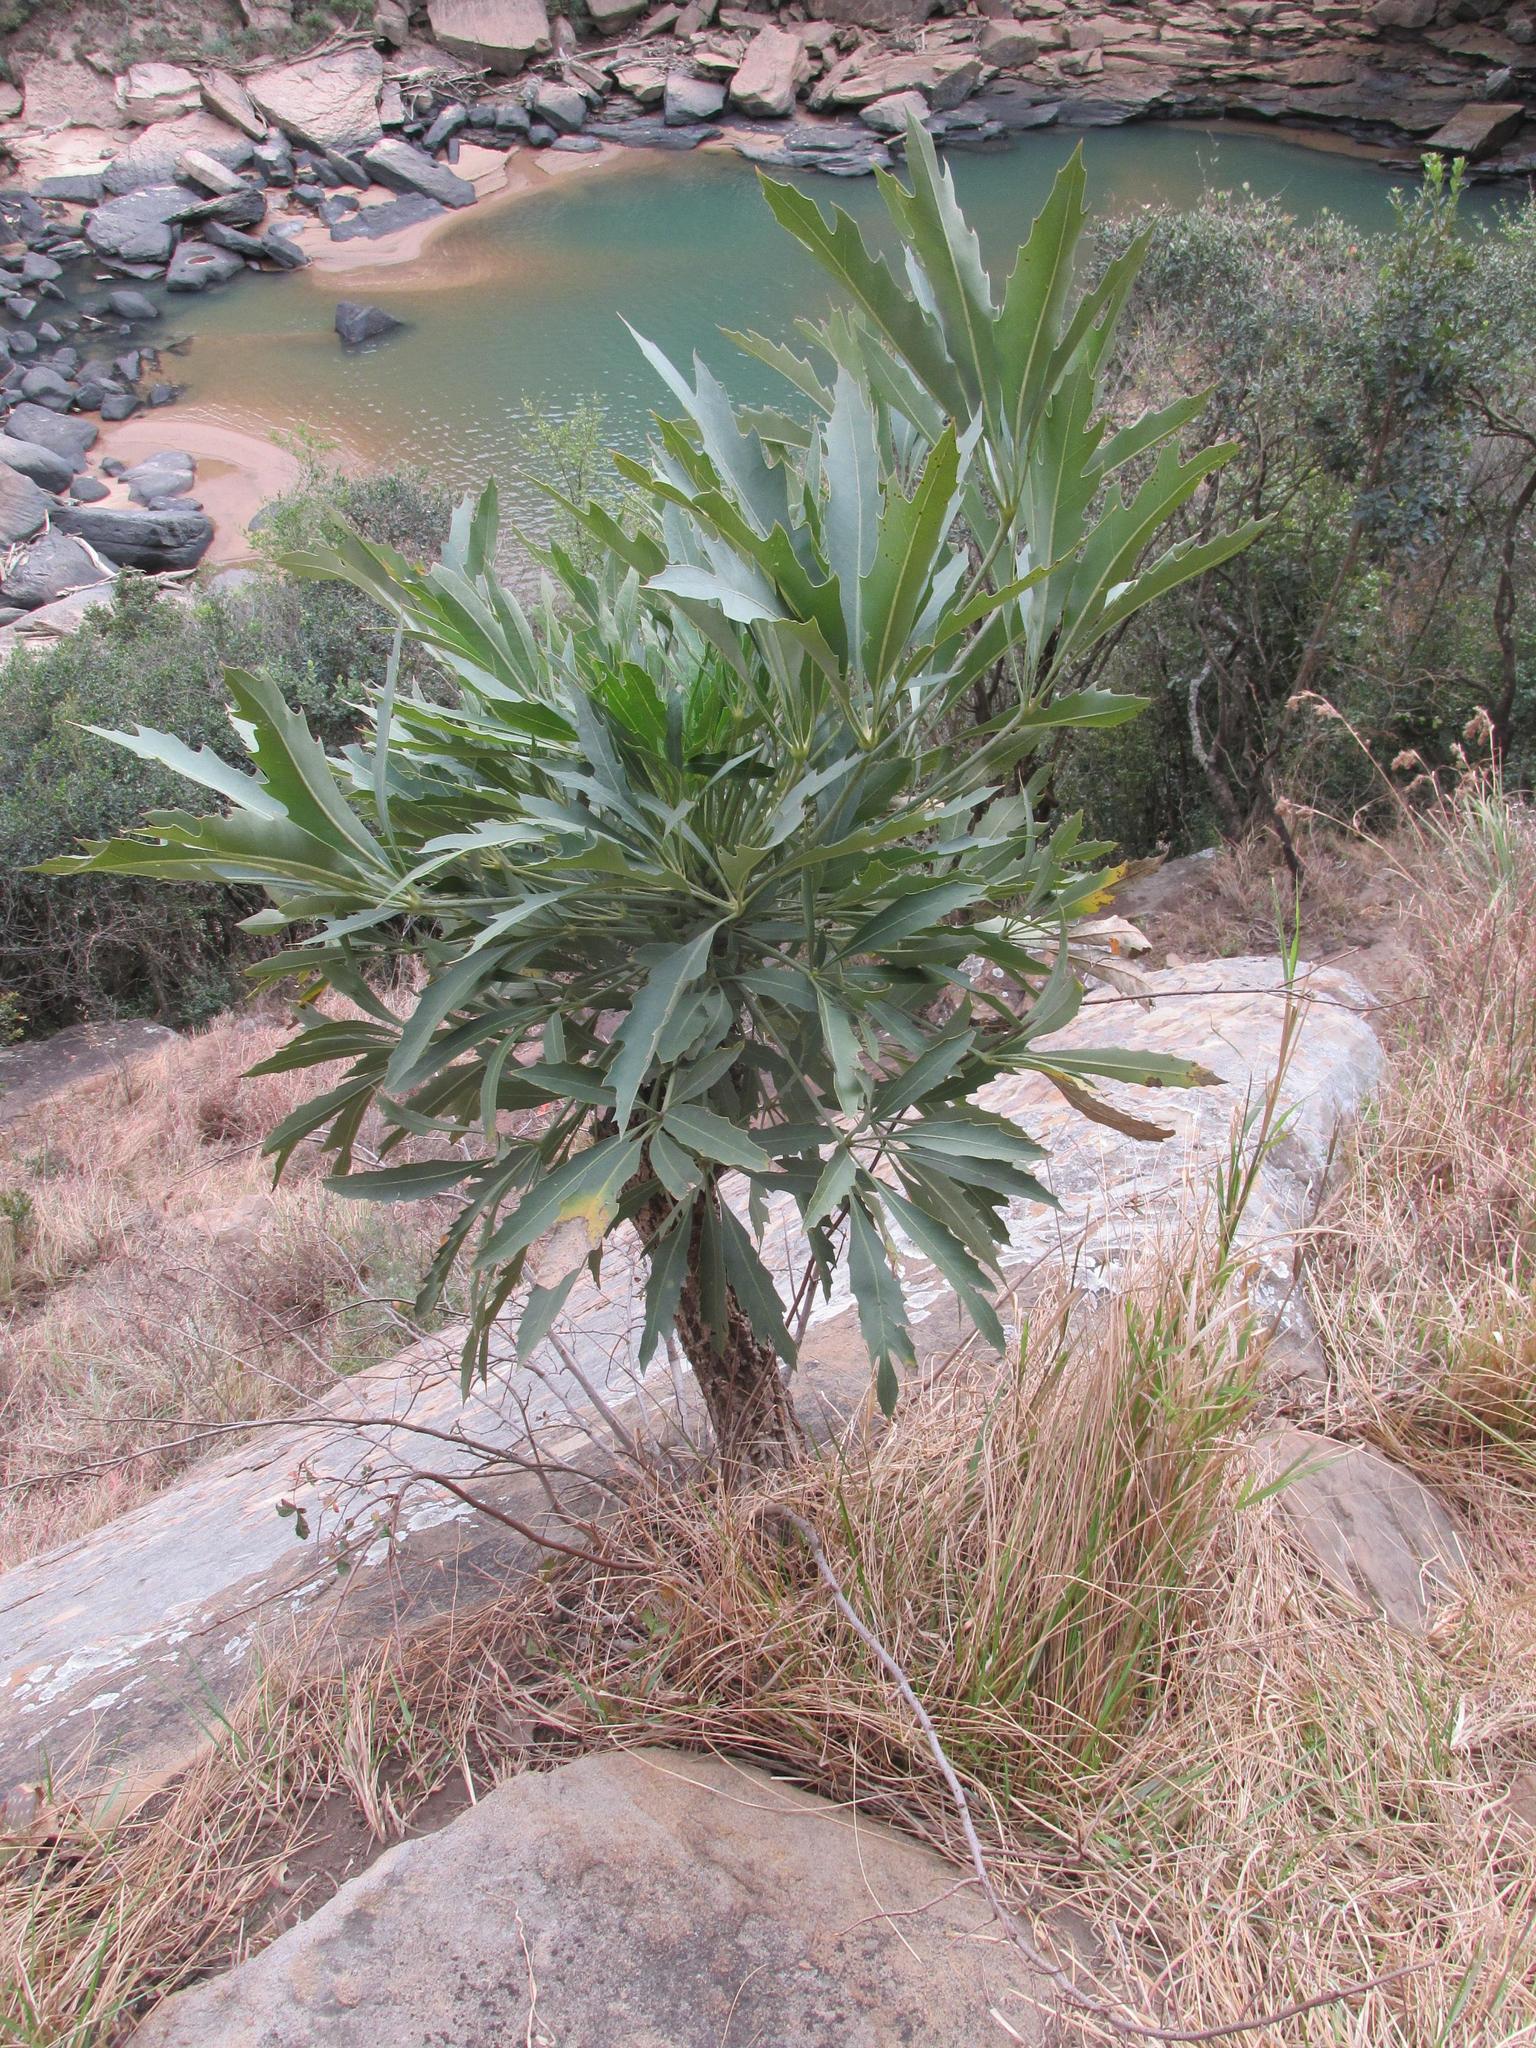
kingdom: Plantae
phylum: Tracheophyta
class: Magnoliopsida
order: Apiales
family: Araliaceae
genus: Cussonia
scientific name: Cussonia paniculata
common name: Cabbagetree
